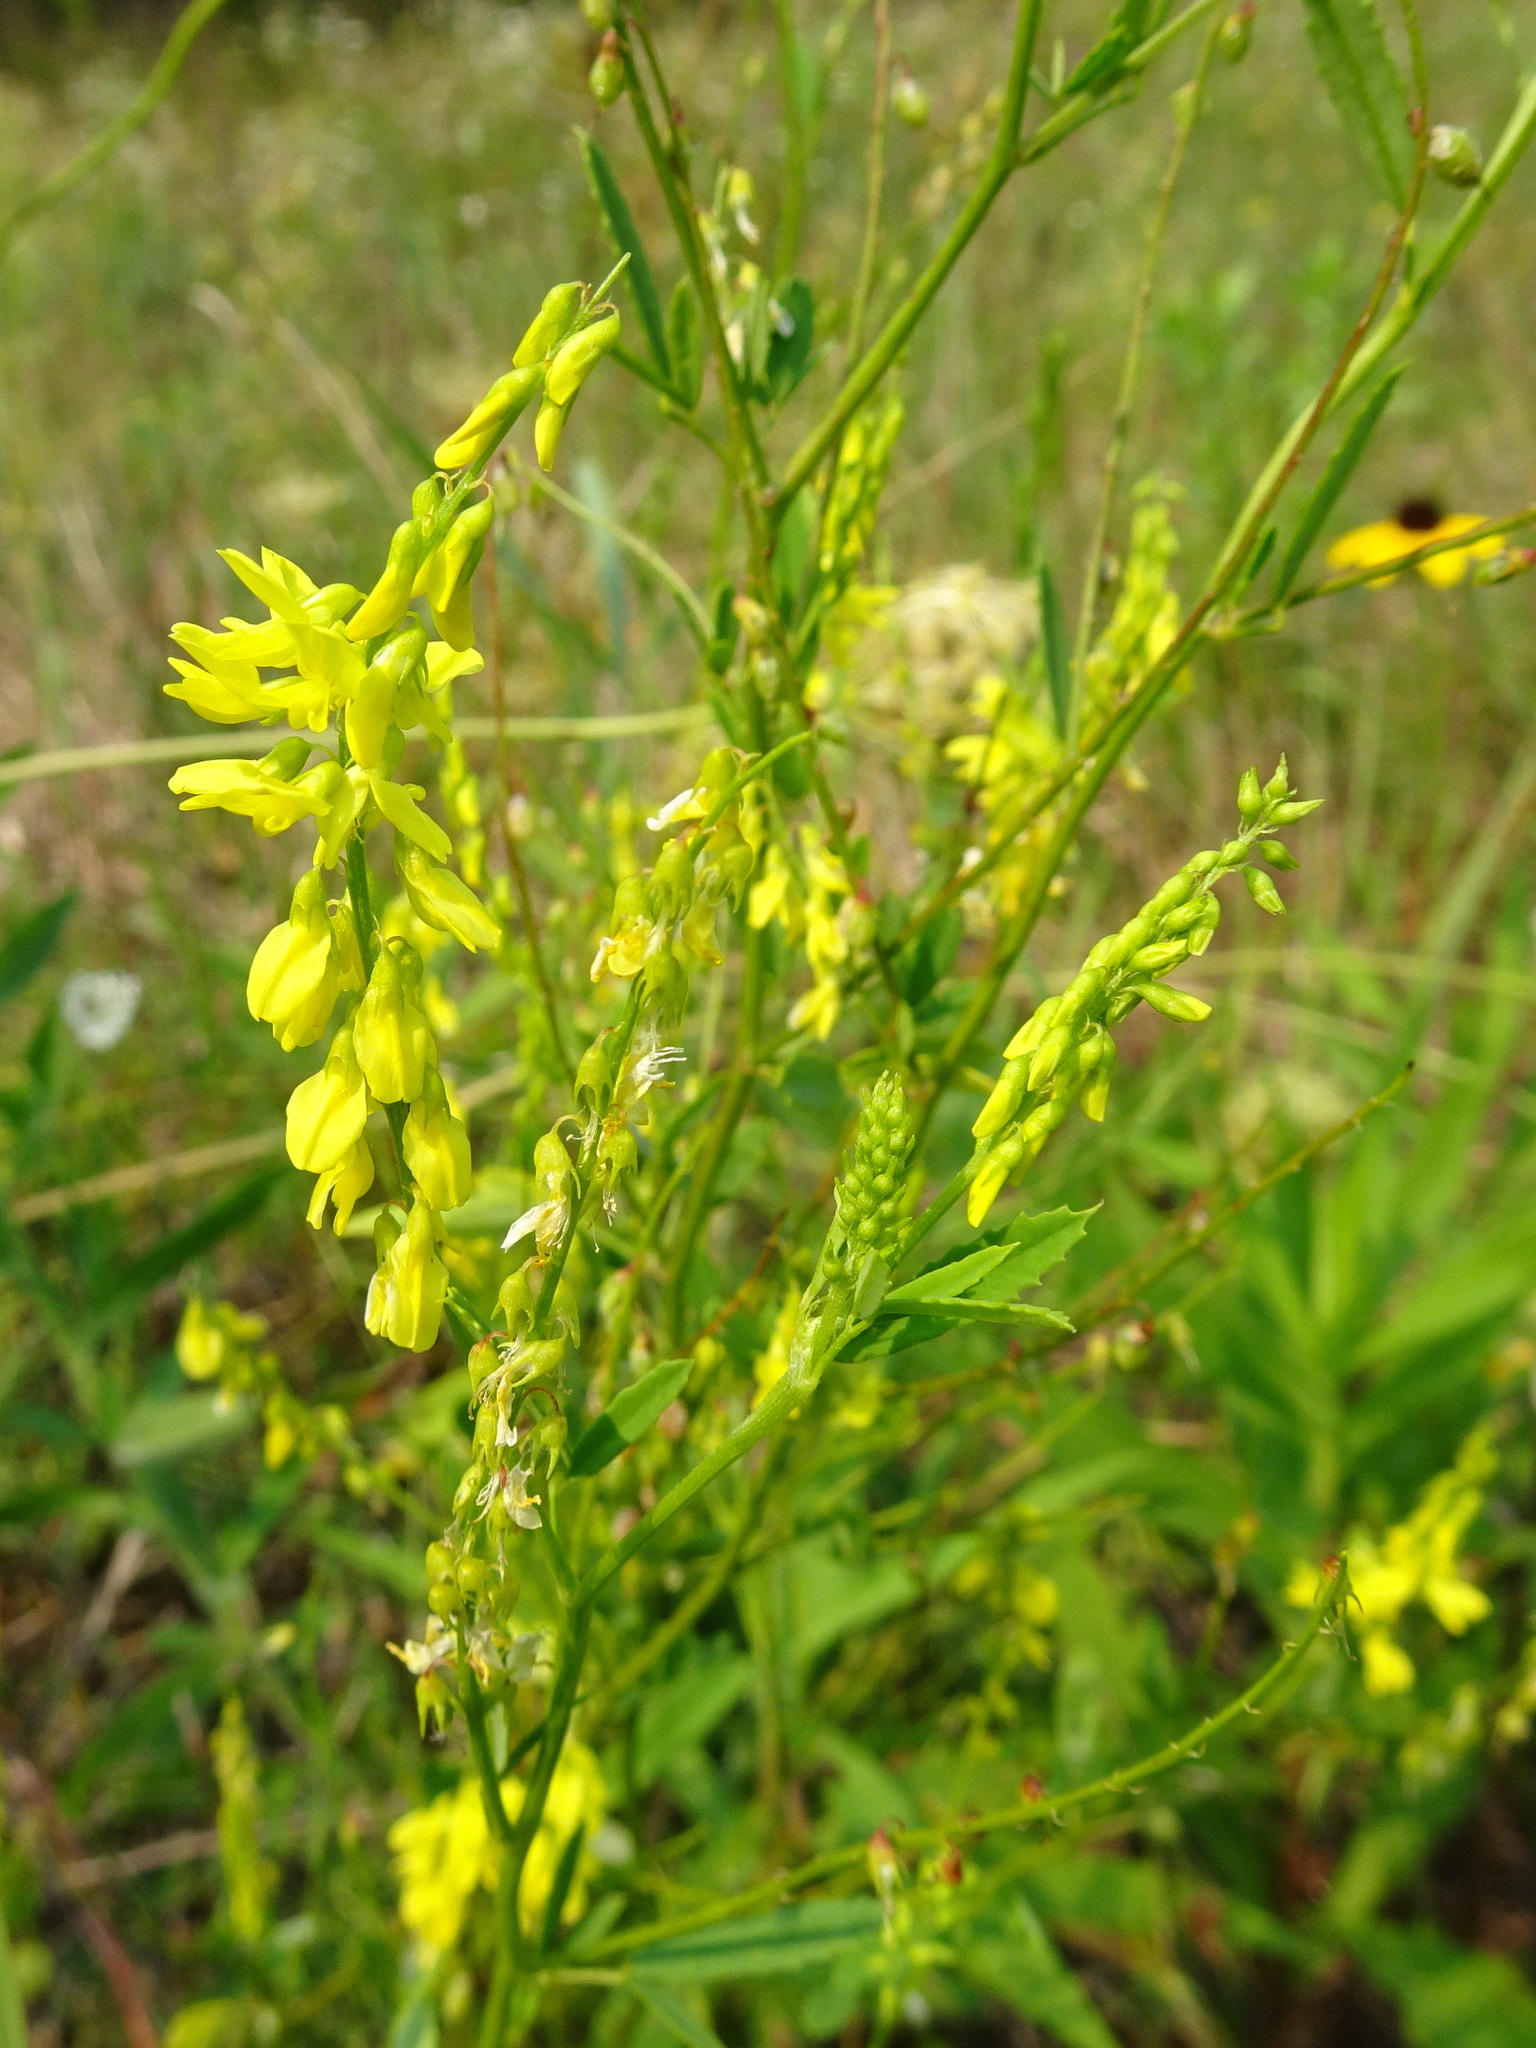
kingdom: Plantae
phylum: Tracheophyta
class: Magnoliopsida
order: Fabales
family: Fabaceae
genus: Melilotus
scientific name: Melilotus officinalis
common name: Sweetclover
